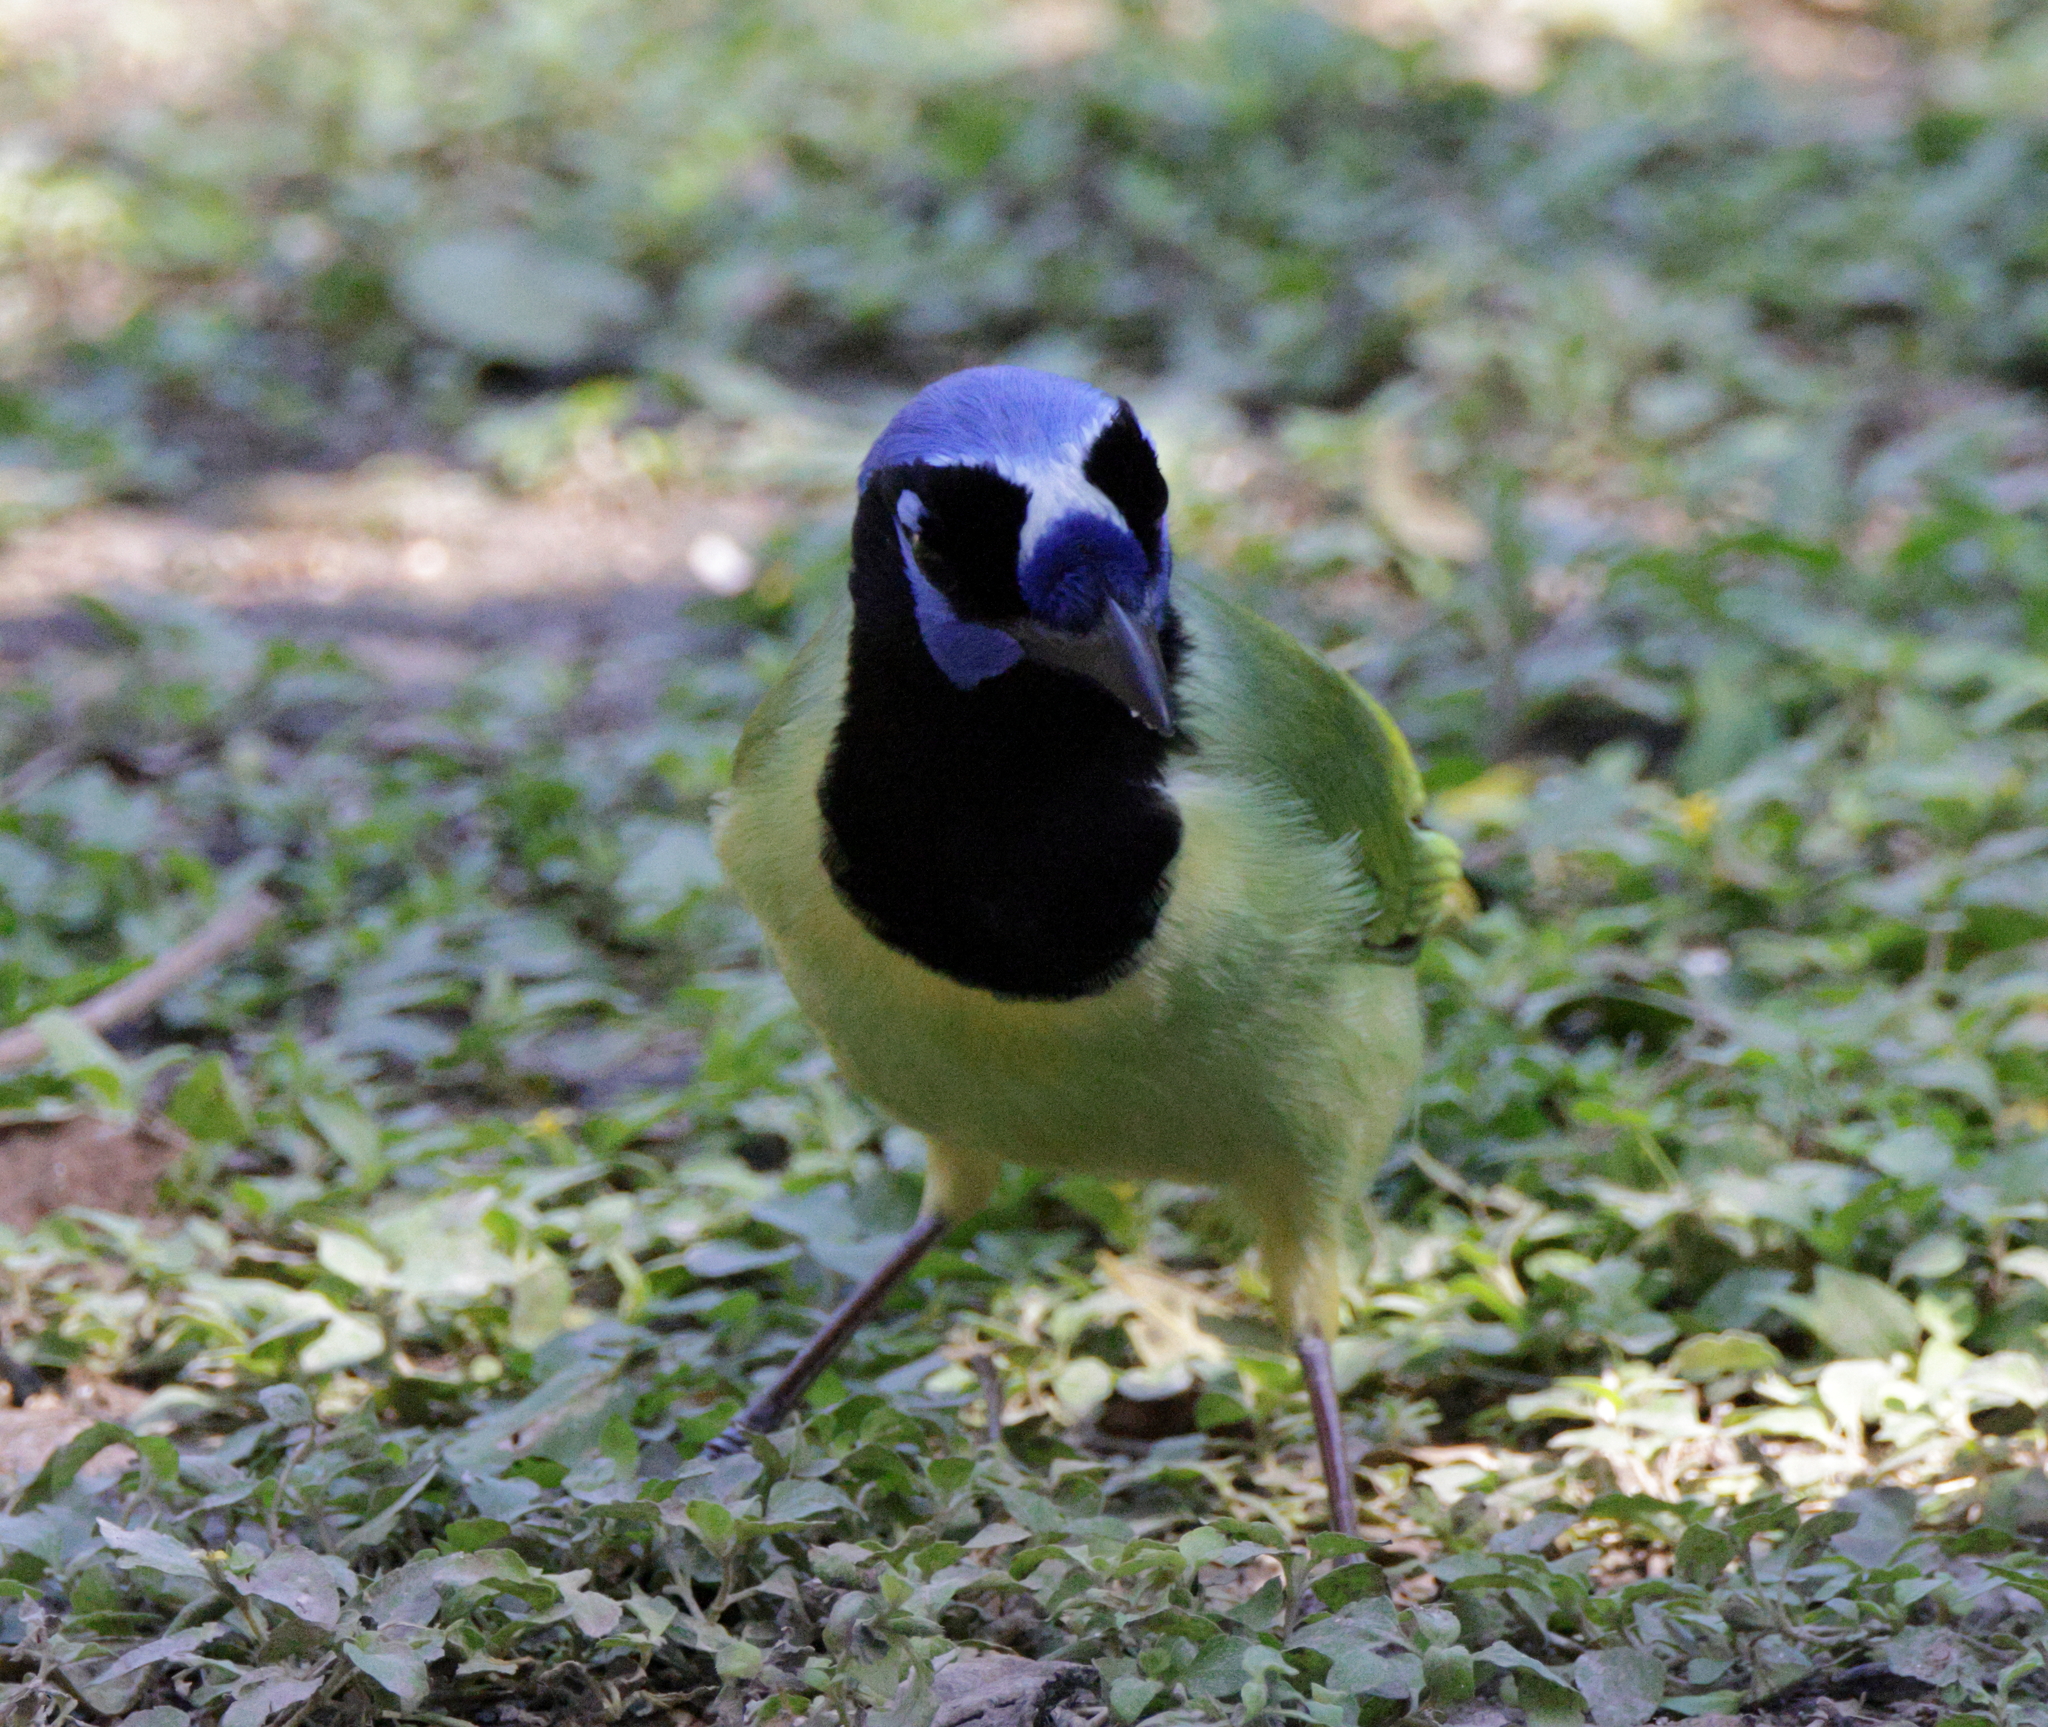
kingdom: Animalia
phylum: Chordata
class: Aves
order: Passeriformes
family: Corvidae
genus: Cyanocorax
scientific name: Cyanocorax yncas
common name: Green jay
